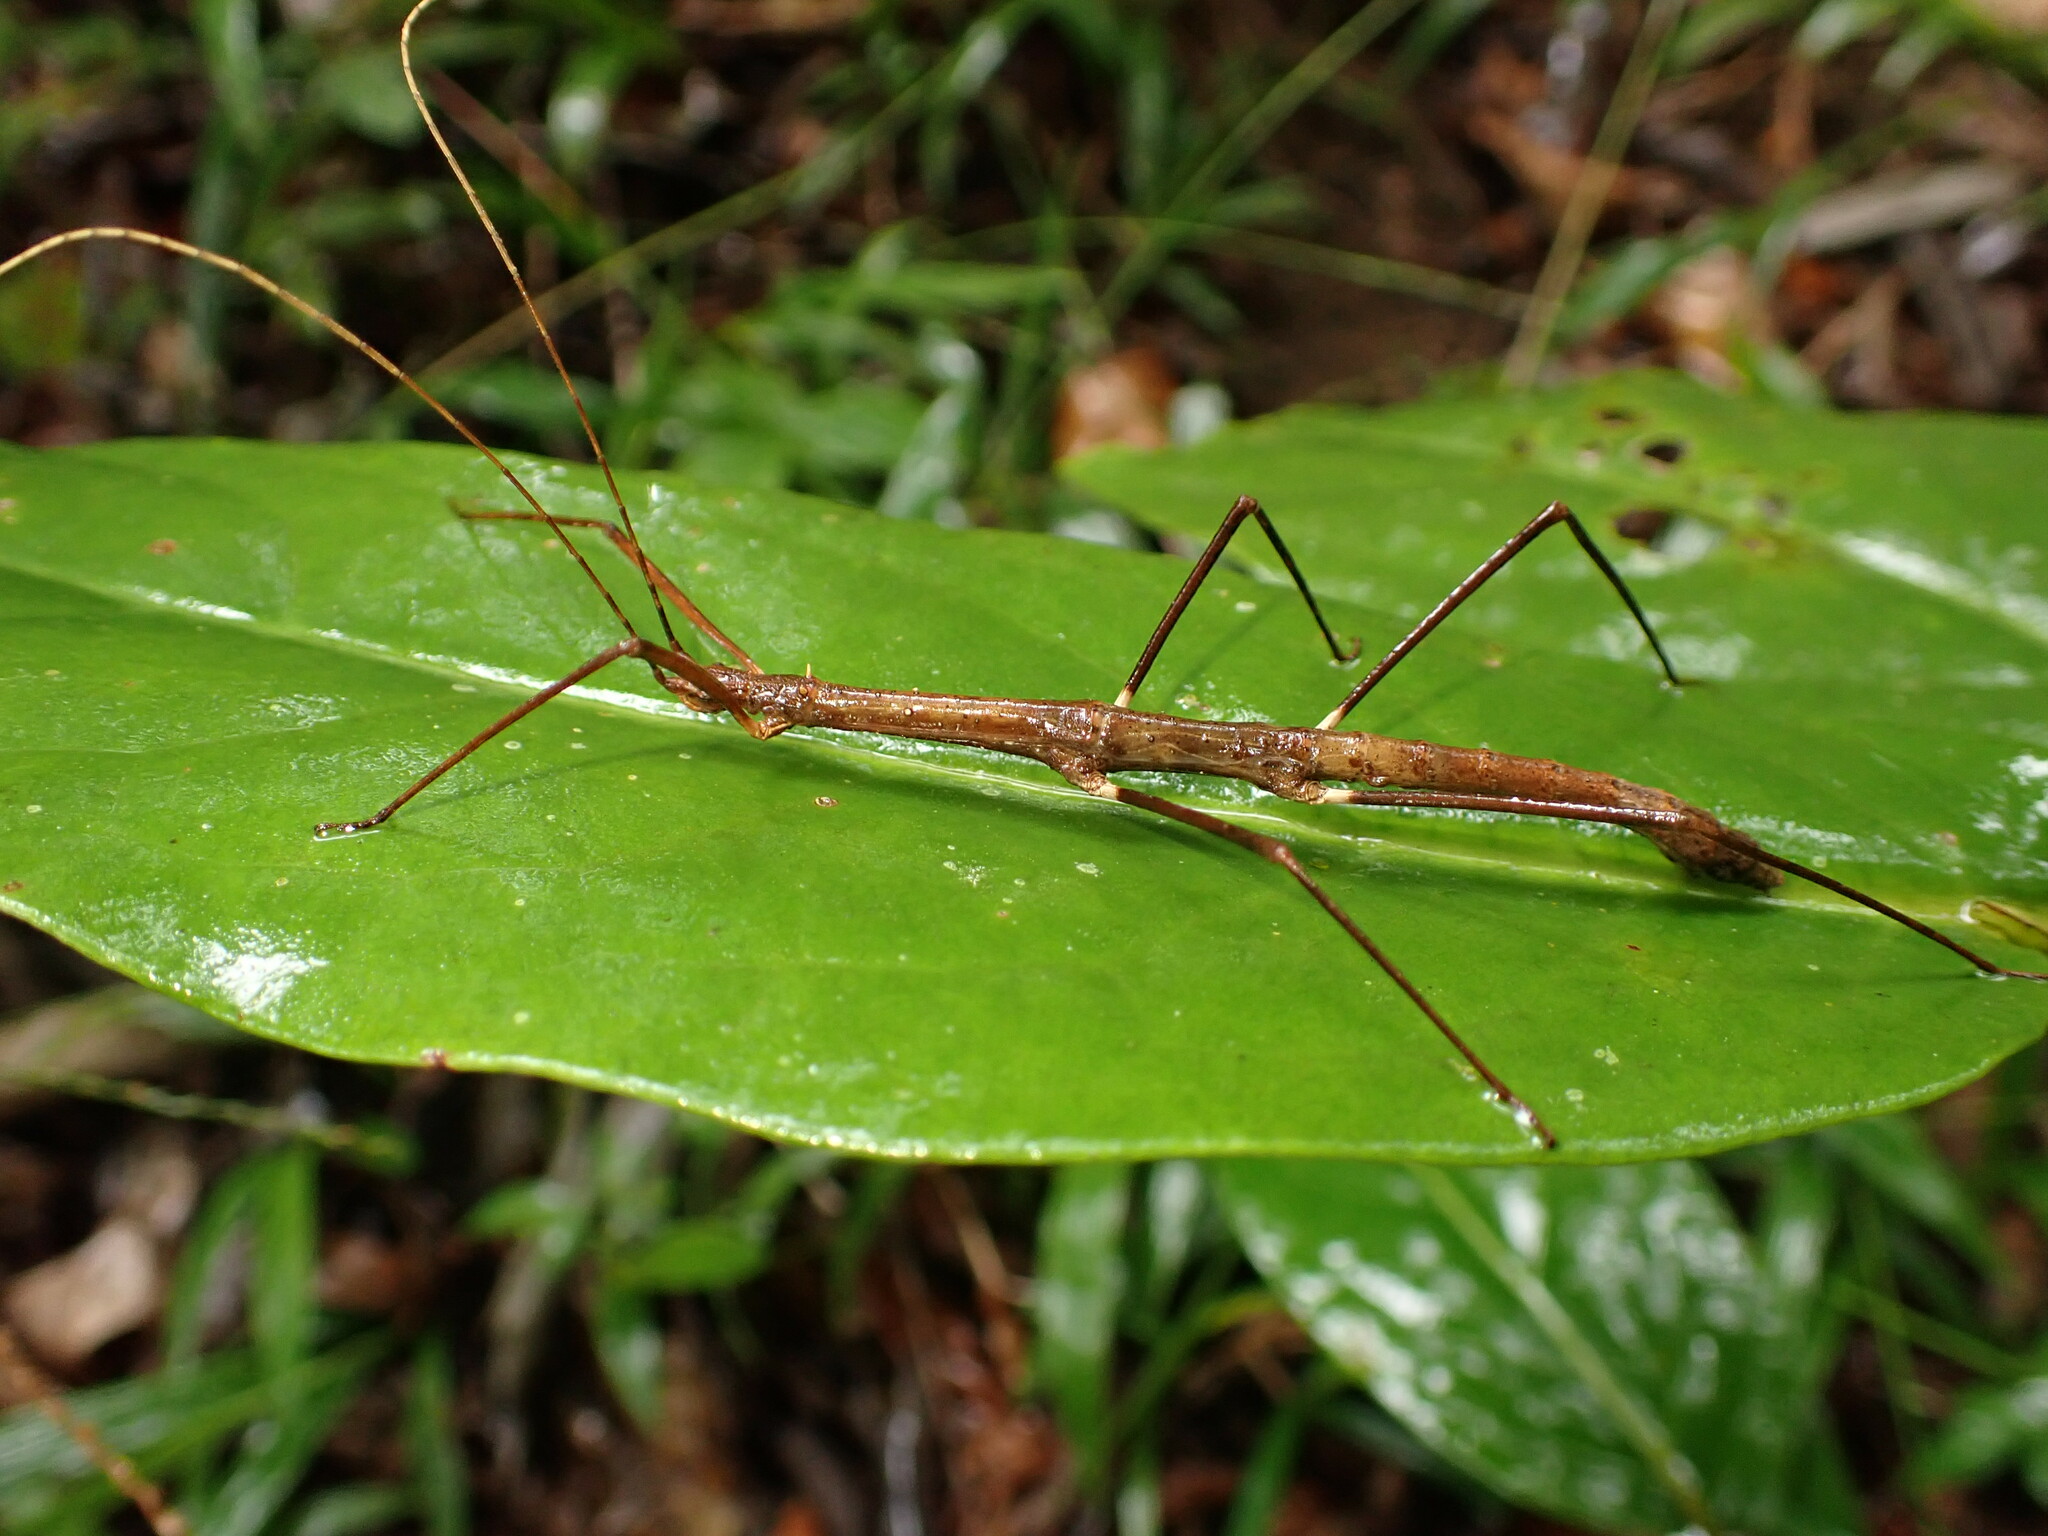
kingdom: Animalia
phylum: Arthropoda
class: Insecta
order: Phasmida
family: Heteronemiidae
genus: Pygirhynchus
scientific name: Pygirhynchus bispinosus
